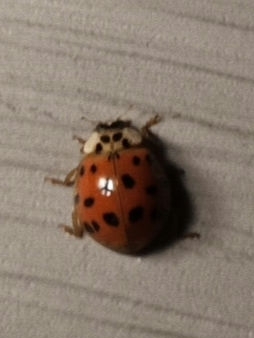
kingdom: Animalia
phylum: Arthropoda
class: Insecta
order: Coleoptera
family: Coccinellidae
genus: Harmonia
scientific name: Harmonia axyridis
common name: Harlequin ladybird
